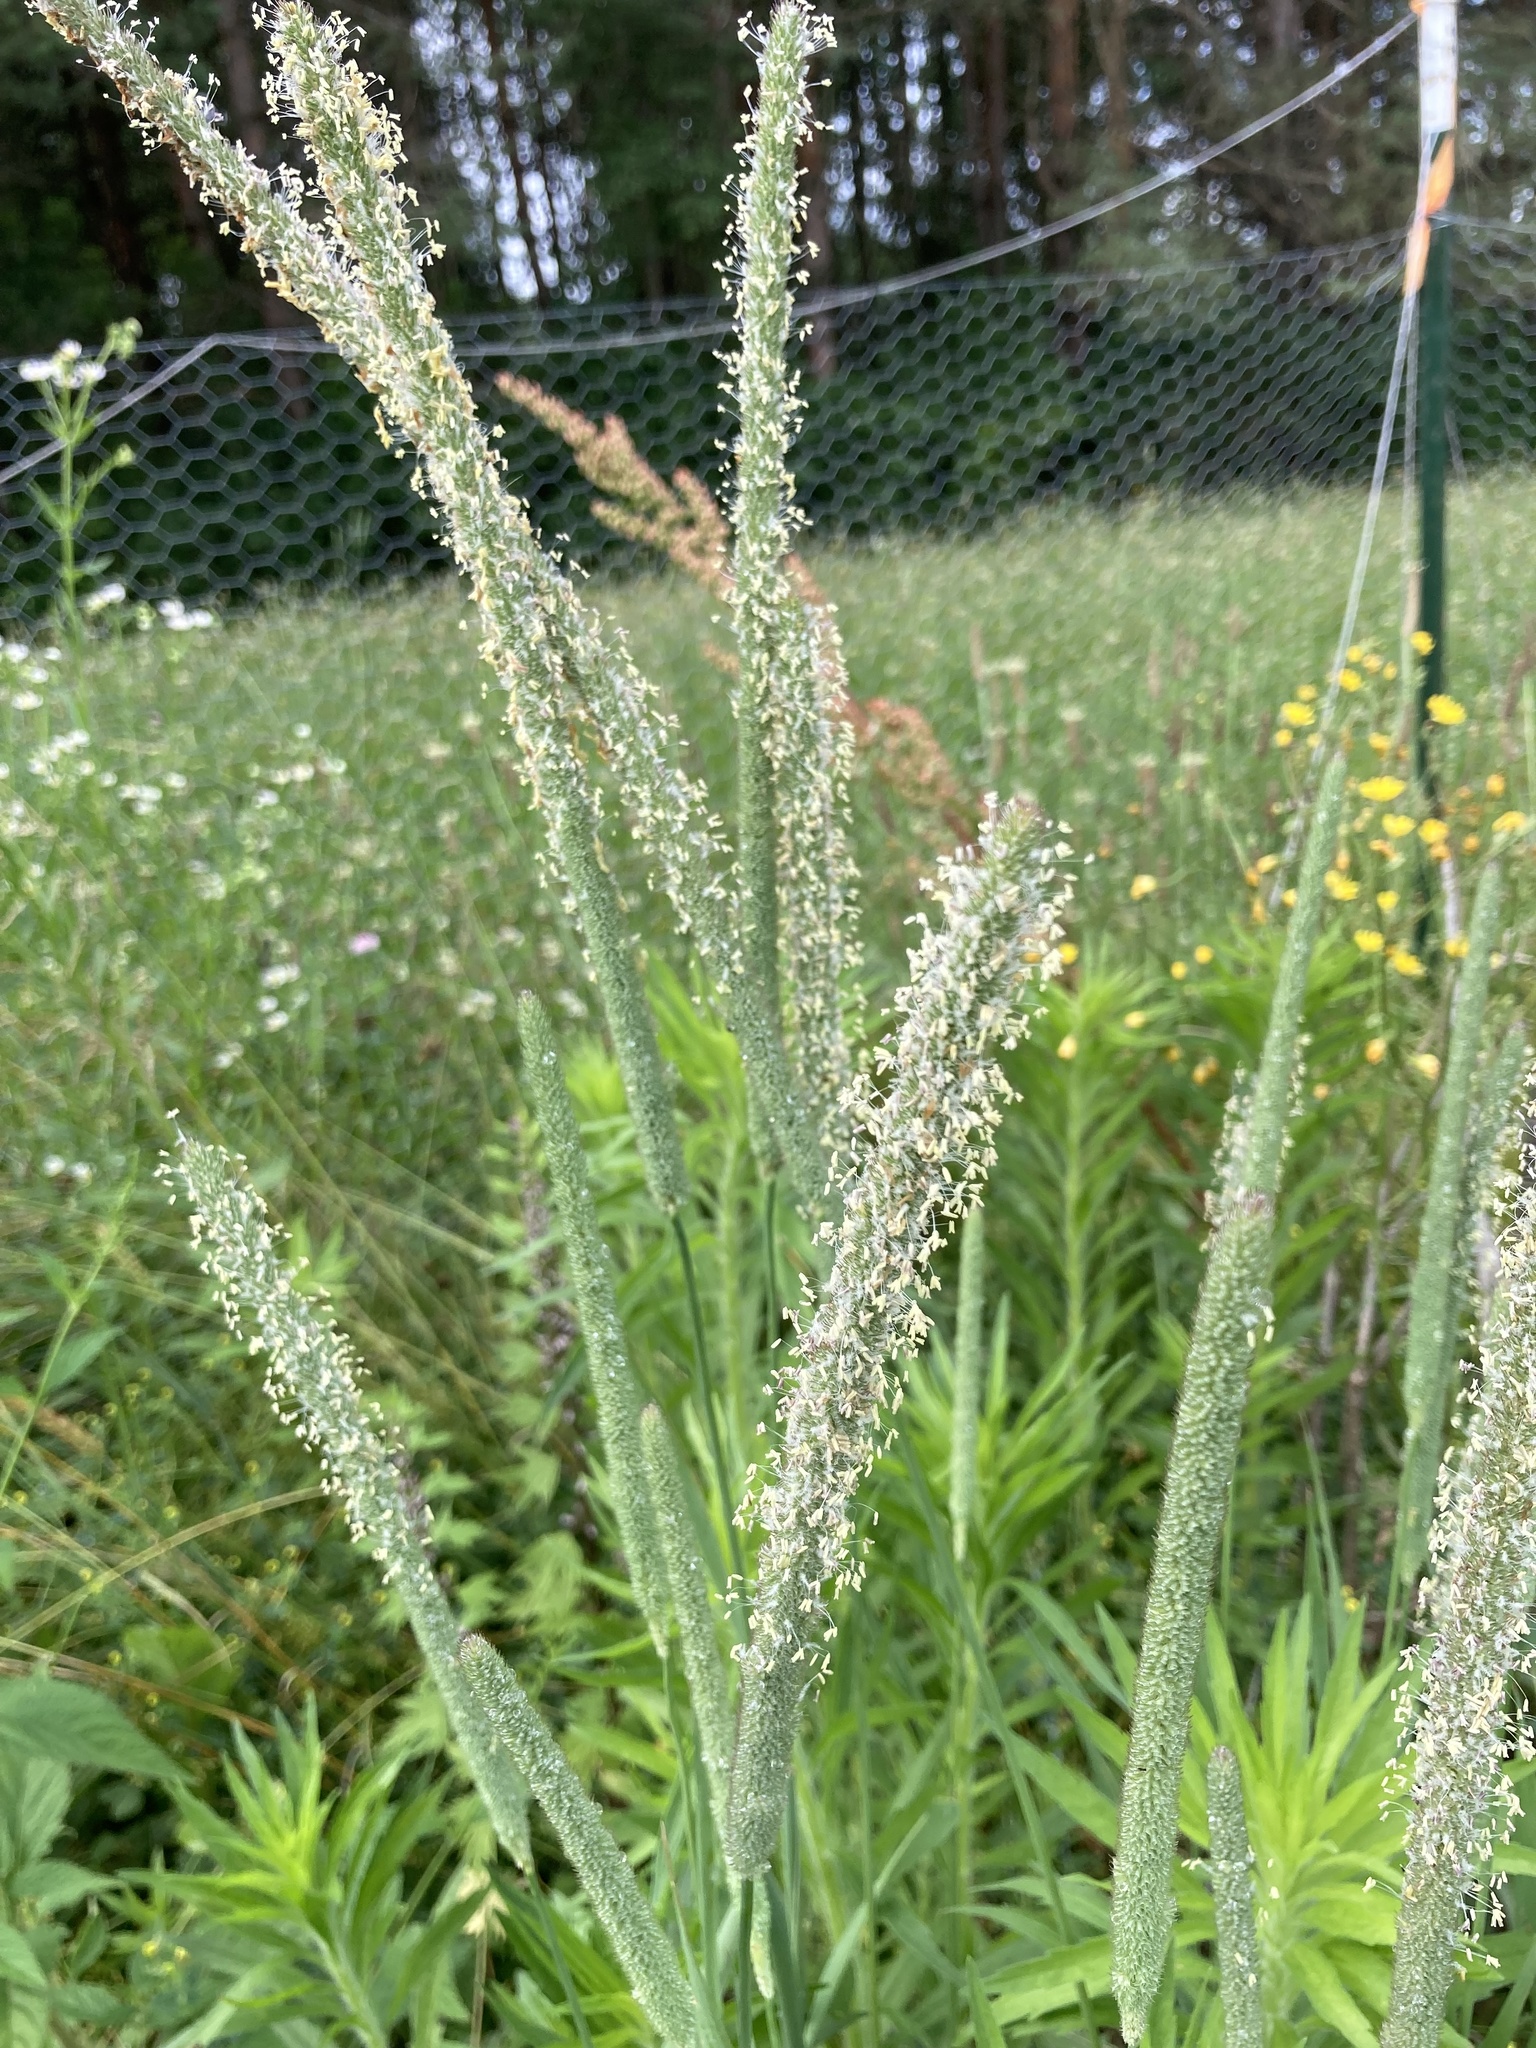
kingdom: Plantae
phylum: Tracheophyta
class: Liliopsida
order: Poales
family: Poaceae
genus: Phleum
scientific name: Phleum pratense
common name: Timothy grass
